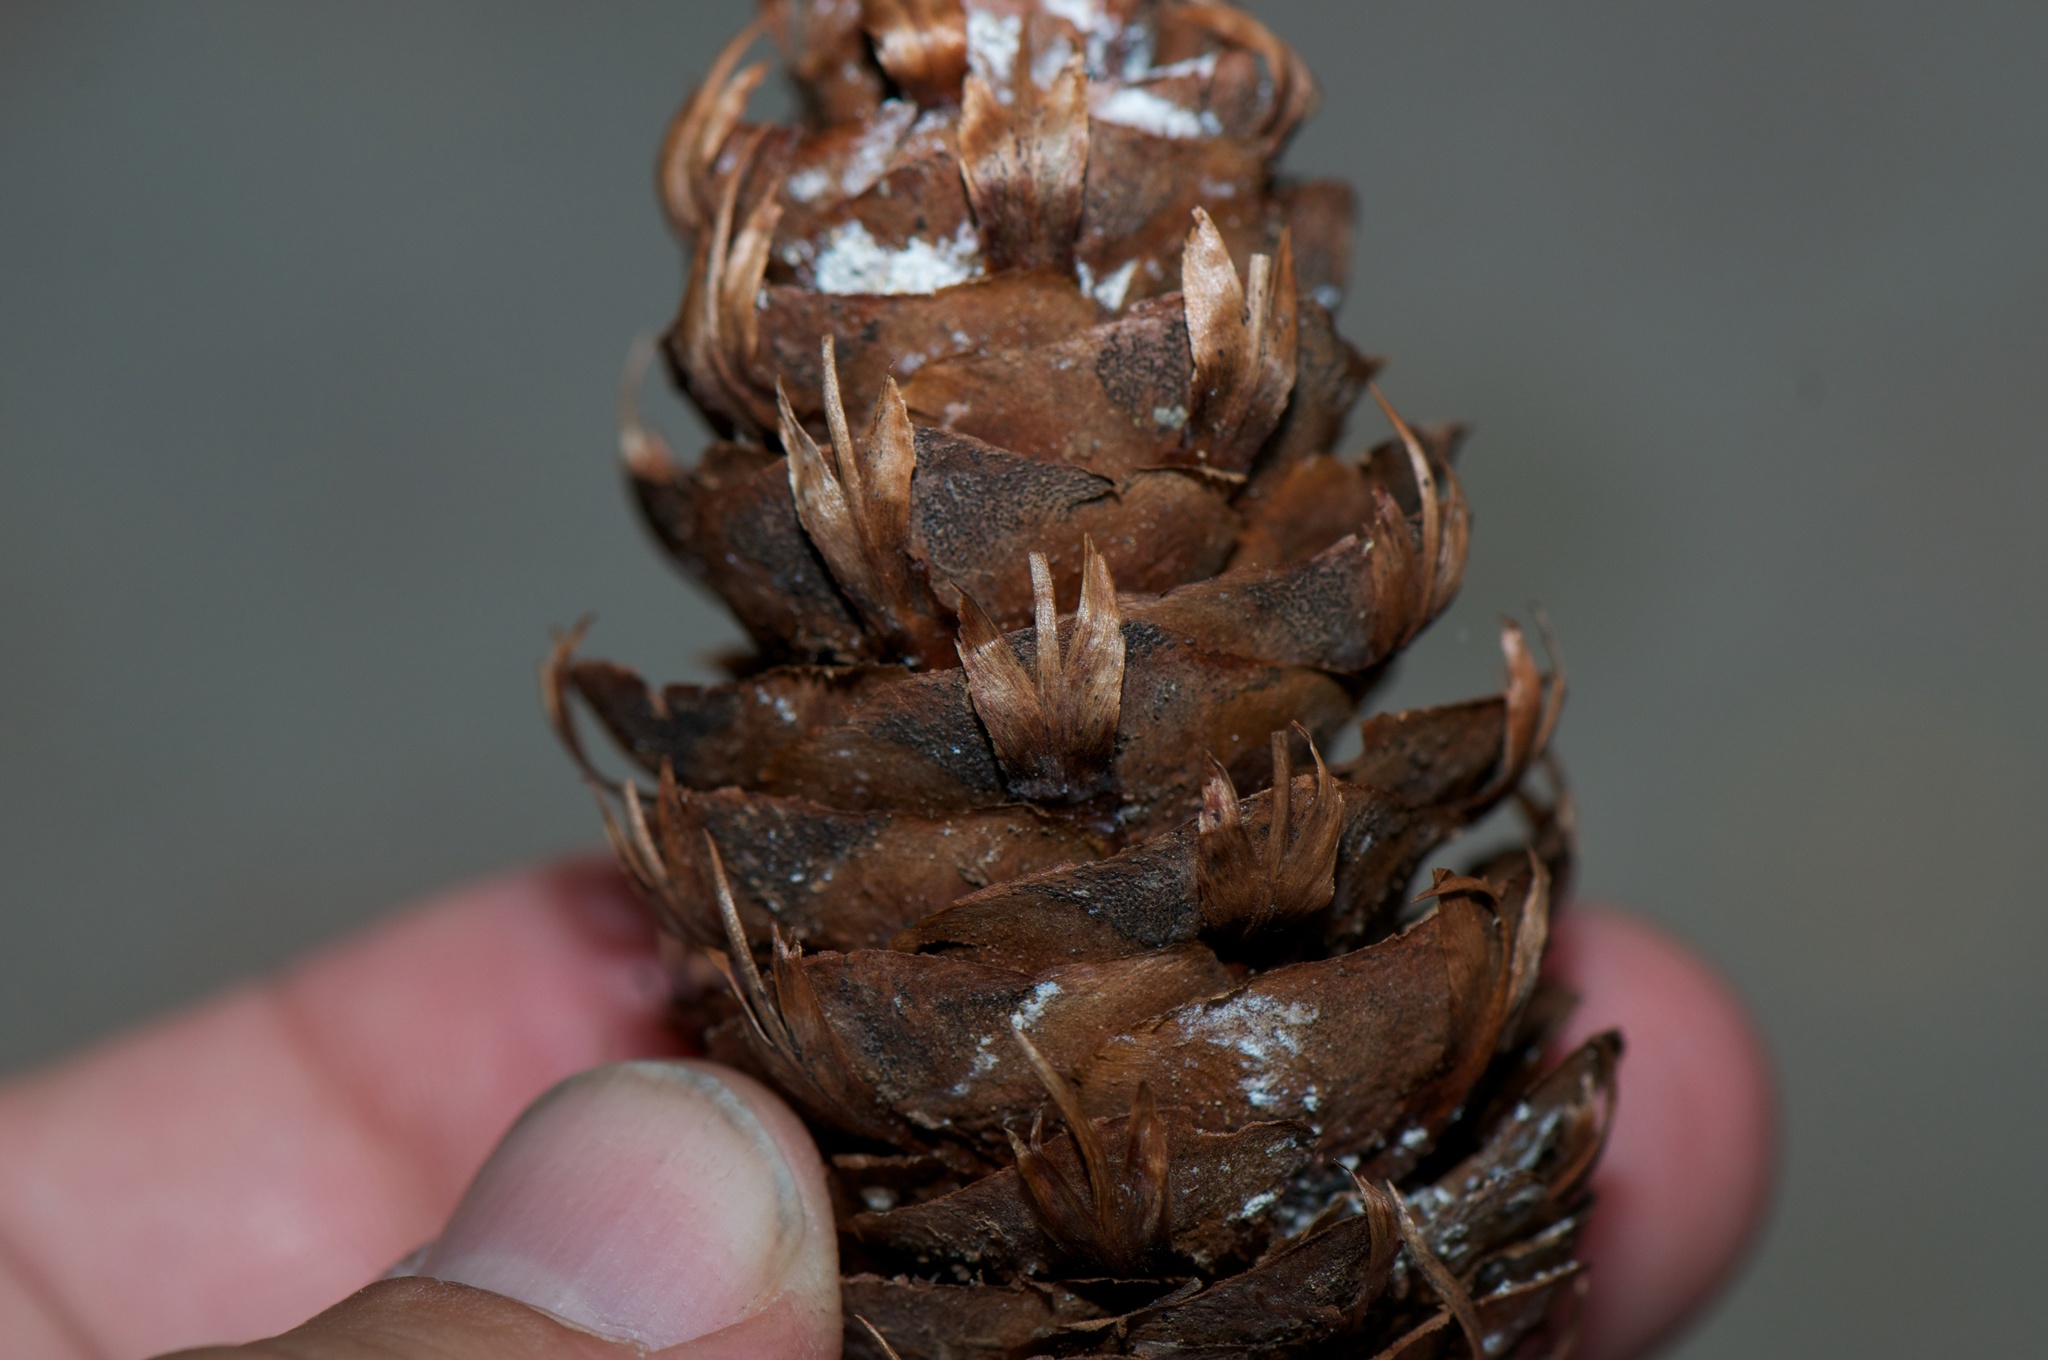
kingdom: Plantae
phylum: Tracheophyta
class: Pinopsida
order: Pinales
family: Pinaceae
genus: Pseudotsuga
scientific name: Pseudotsuga menziesii
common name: Douglas fir
